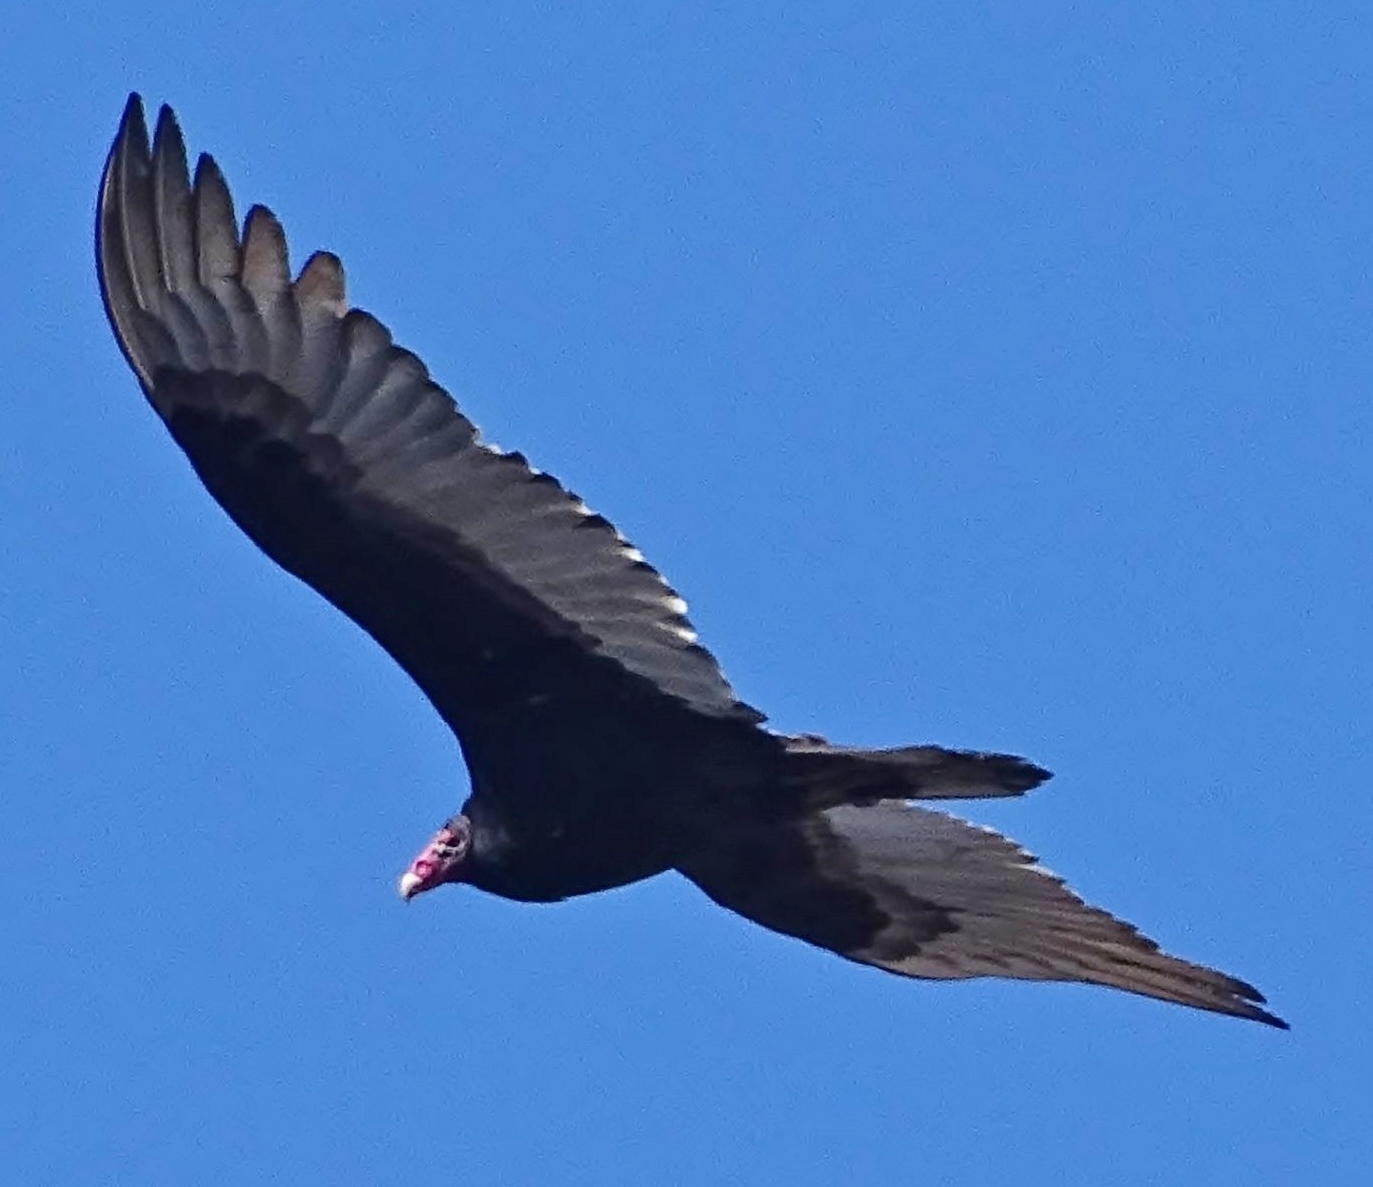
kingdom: Animalia
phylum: Chordata
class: Aves
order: Accipitriformes
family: Cathartidae
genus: Cathartes
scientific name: Cathartes aura
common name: Turkey vulture
